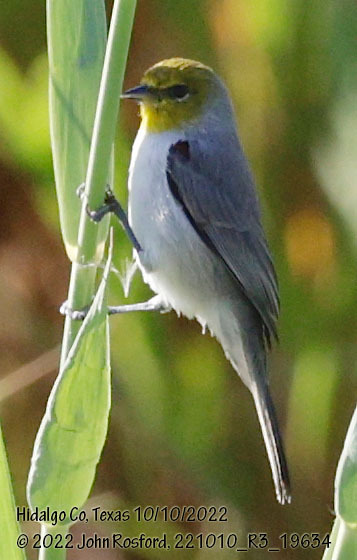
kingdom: Animalia
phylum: Chordata
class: Aves
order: Passeriformes
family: Remizidae
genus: Auriparus
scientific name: Auriparus flaviceps
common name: Verdin
